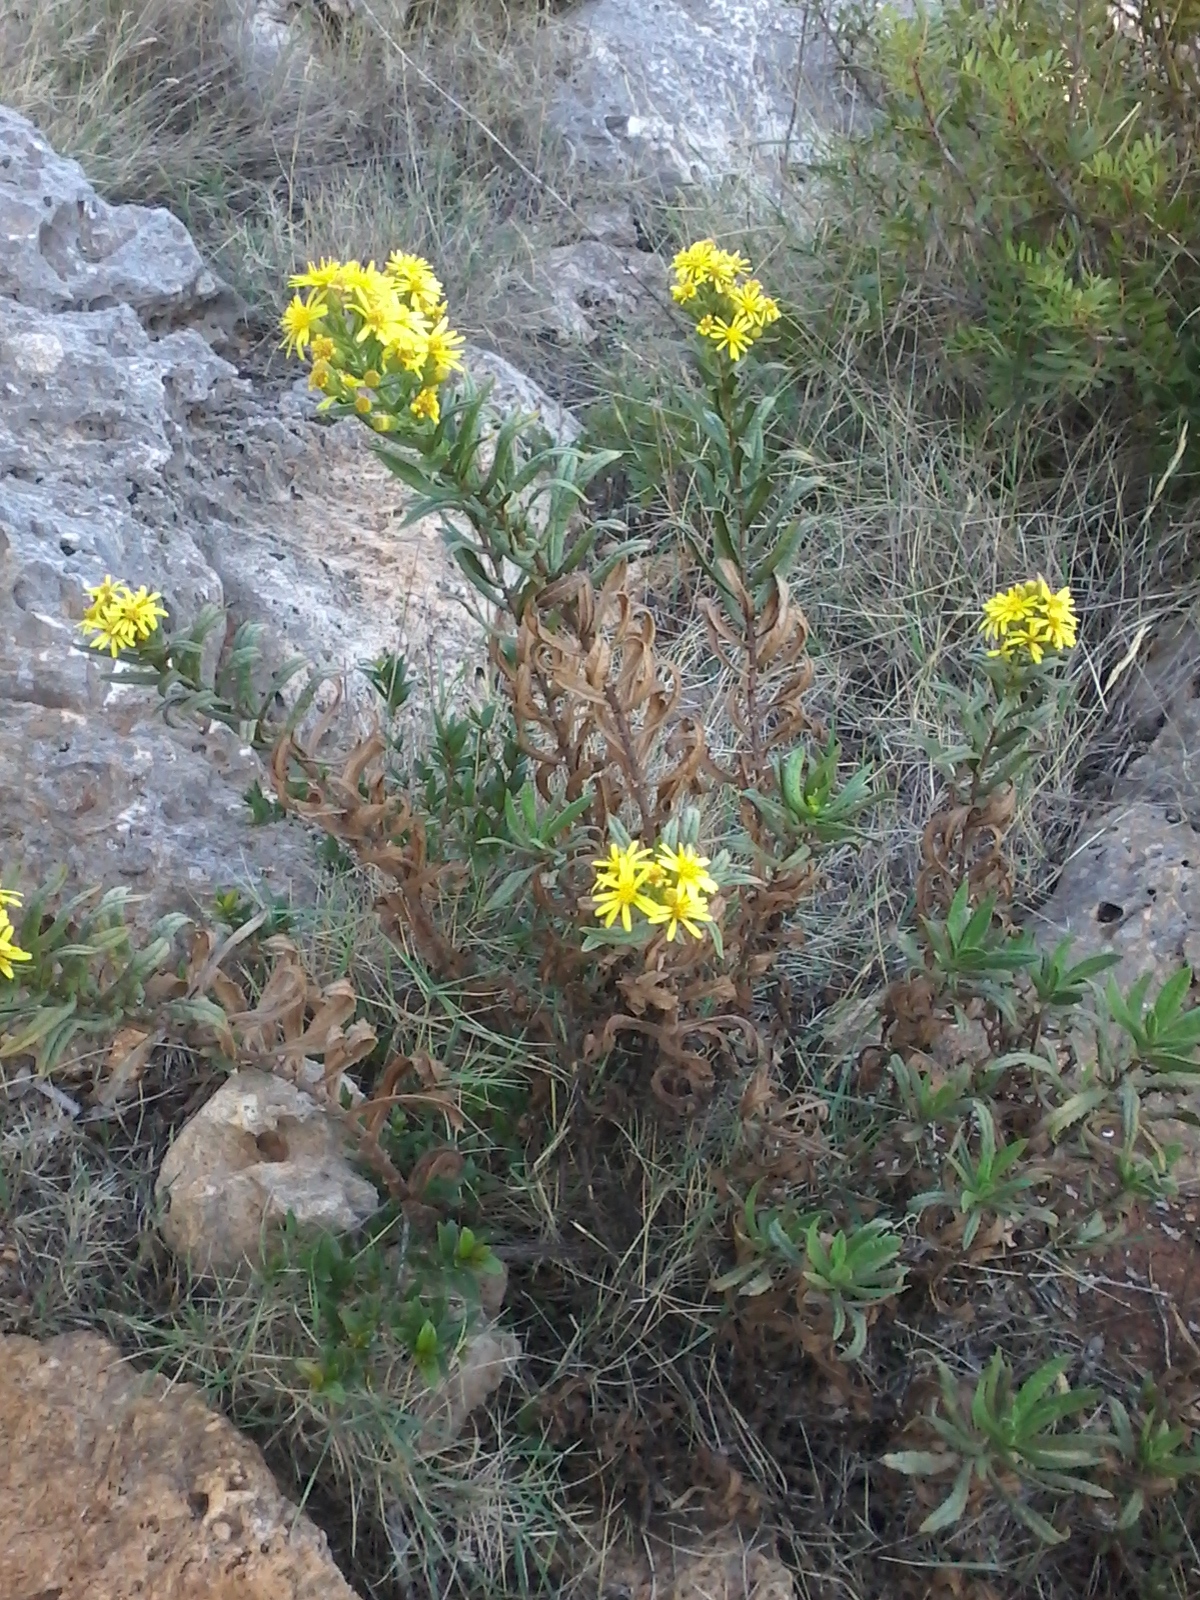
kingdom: Plantae
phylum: Tracheophyta
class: Magnoliopsida
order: Asterales
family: Asteraceae
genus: Dittrichia
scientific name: Dittrichia viscosa
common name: Woody fleabane
